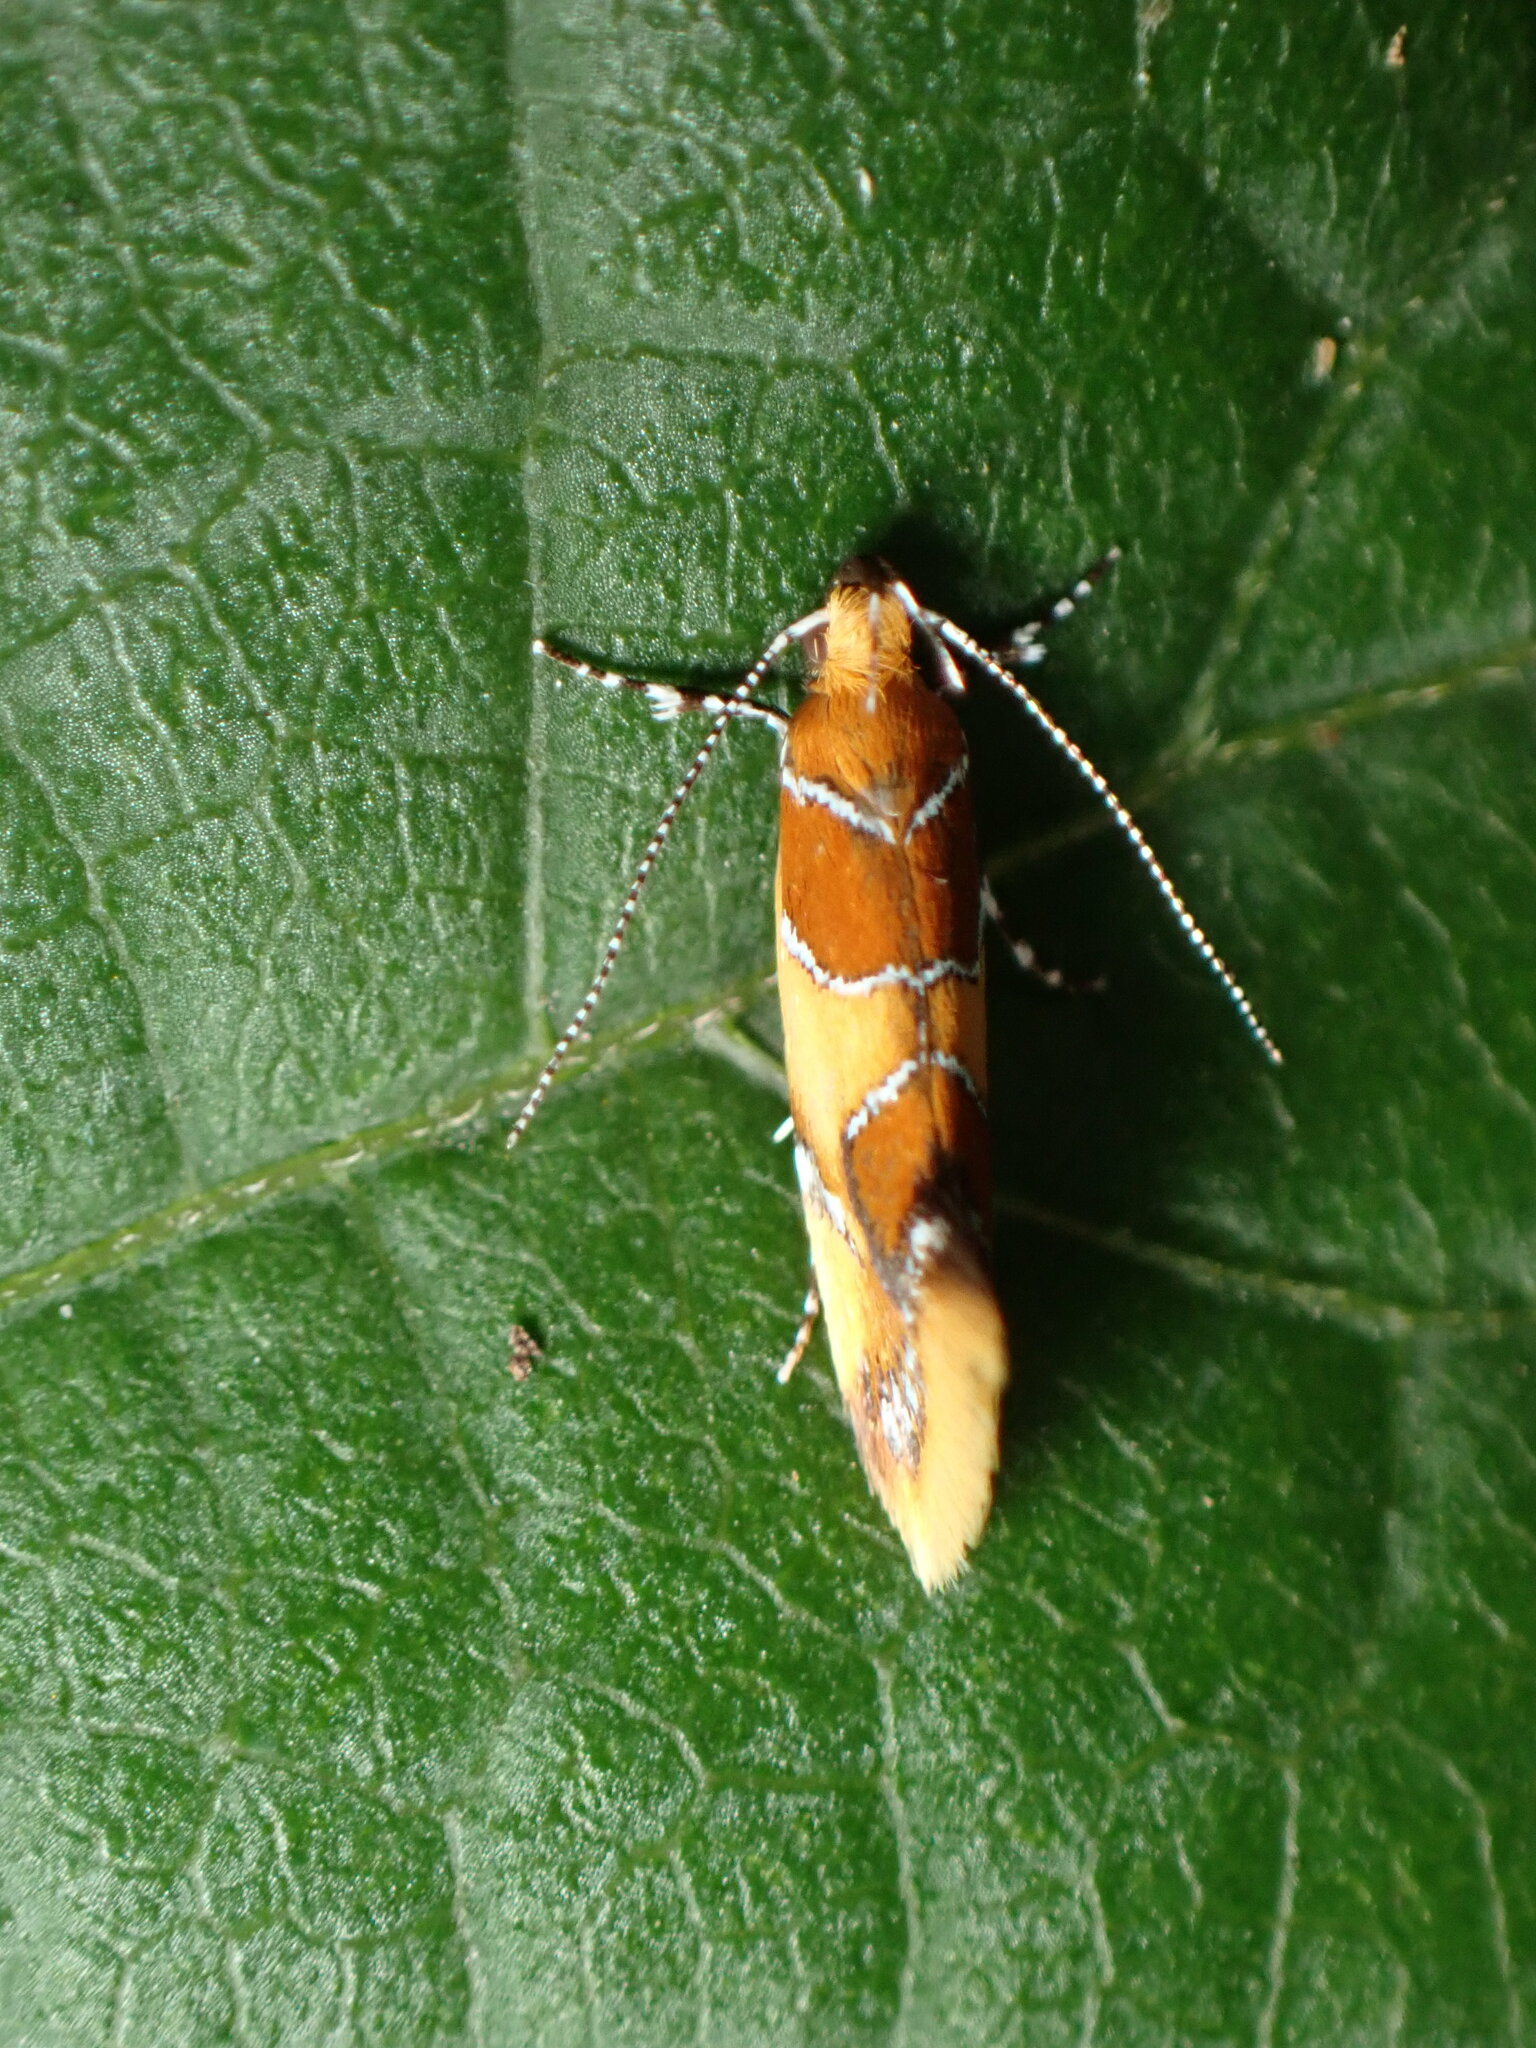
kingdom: Animalia
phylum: Arthropoda
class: Insecta
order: Lepidoptera
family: Oecophoridae
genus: Callima
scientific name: Callima argenticinctella
